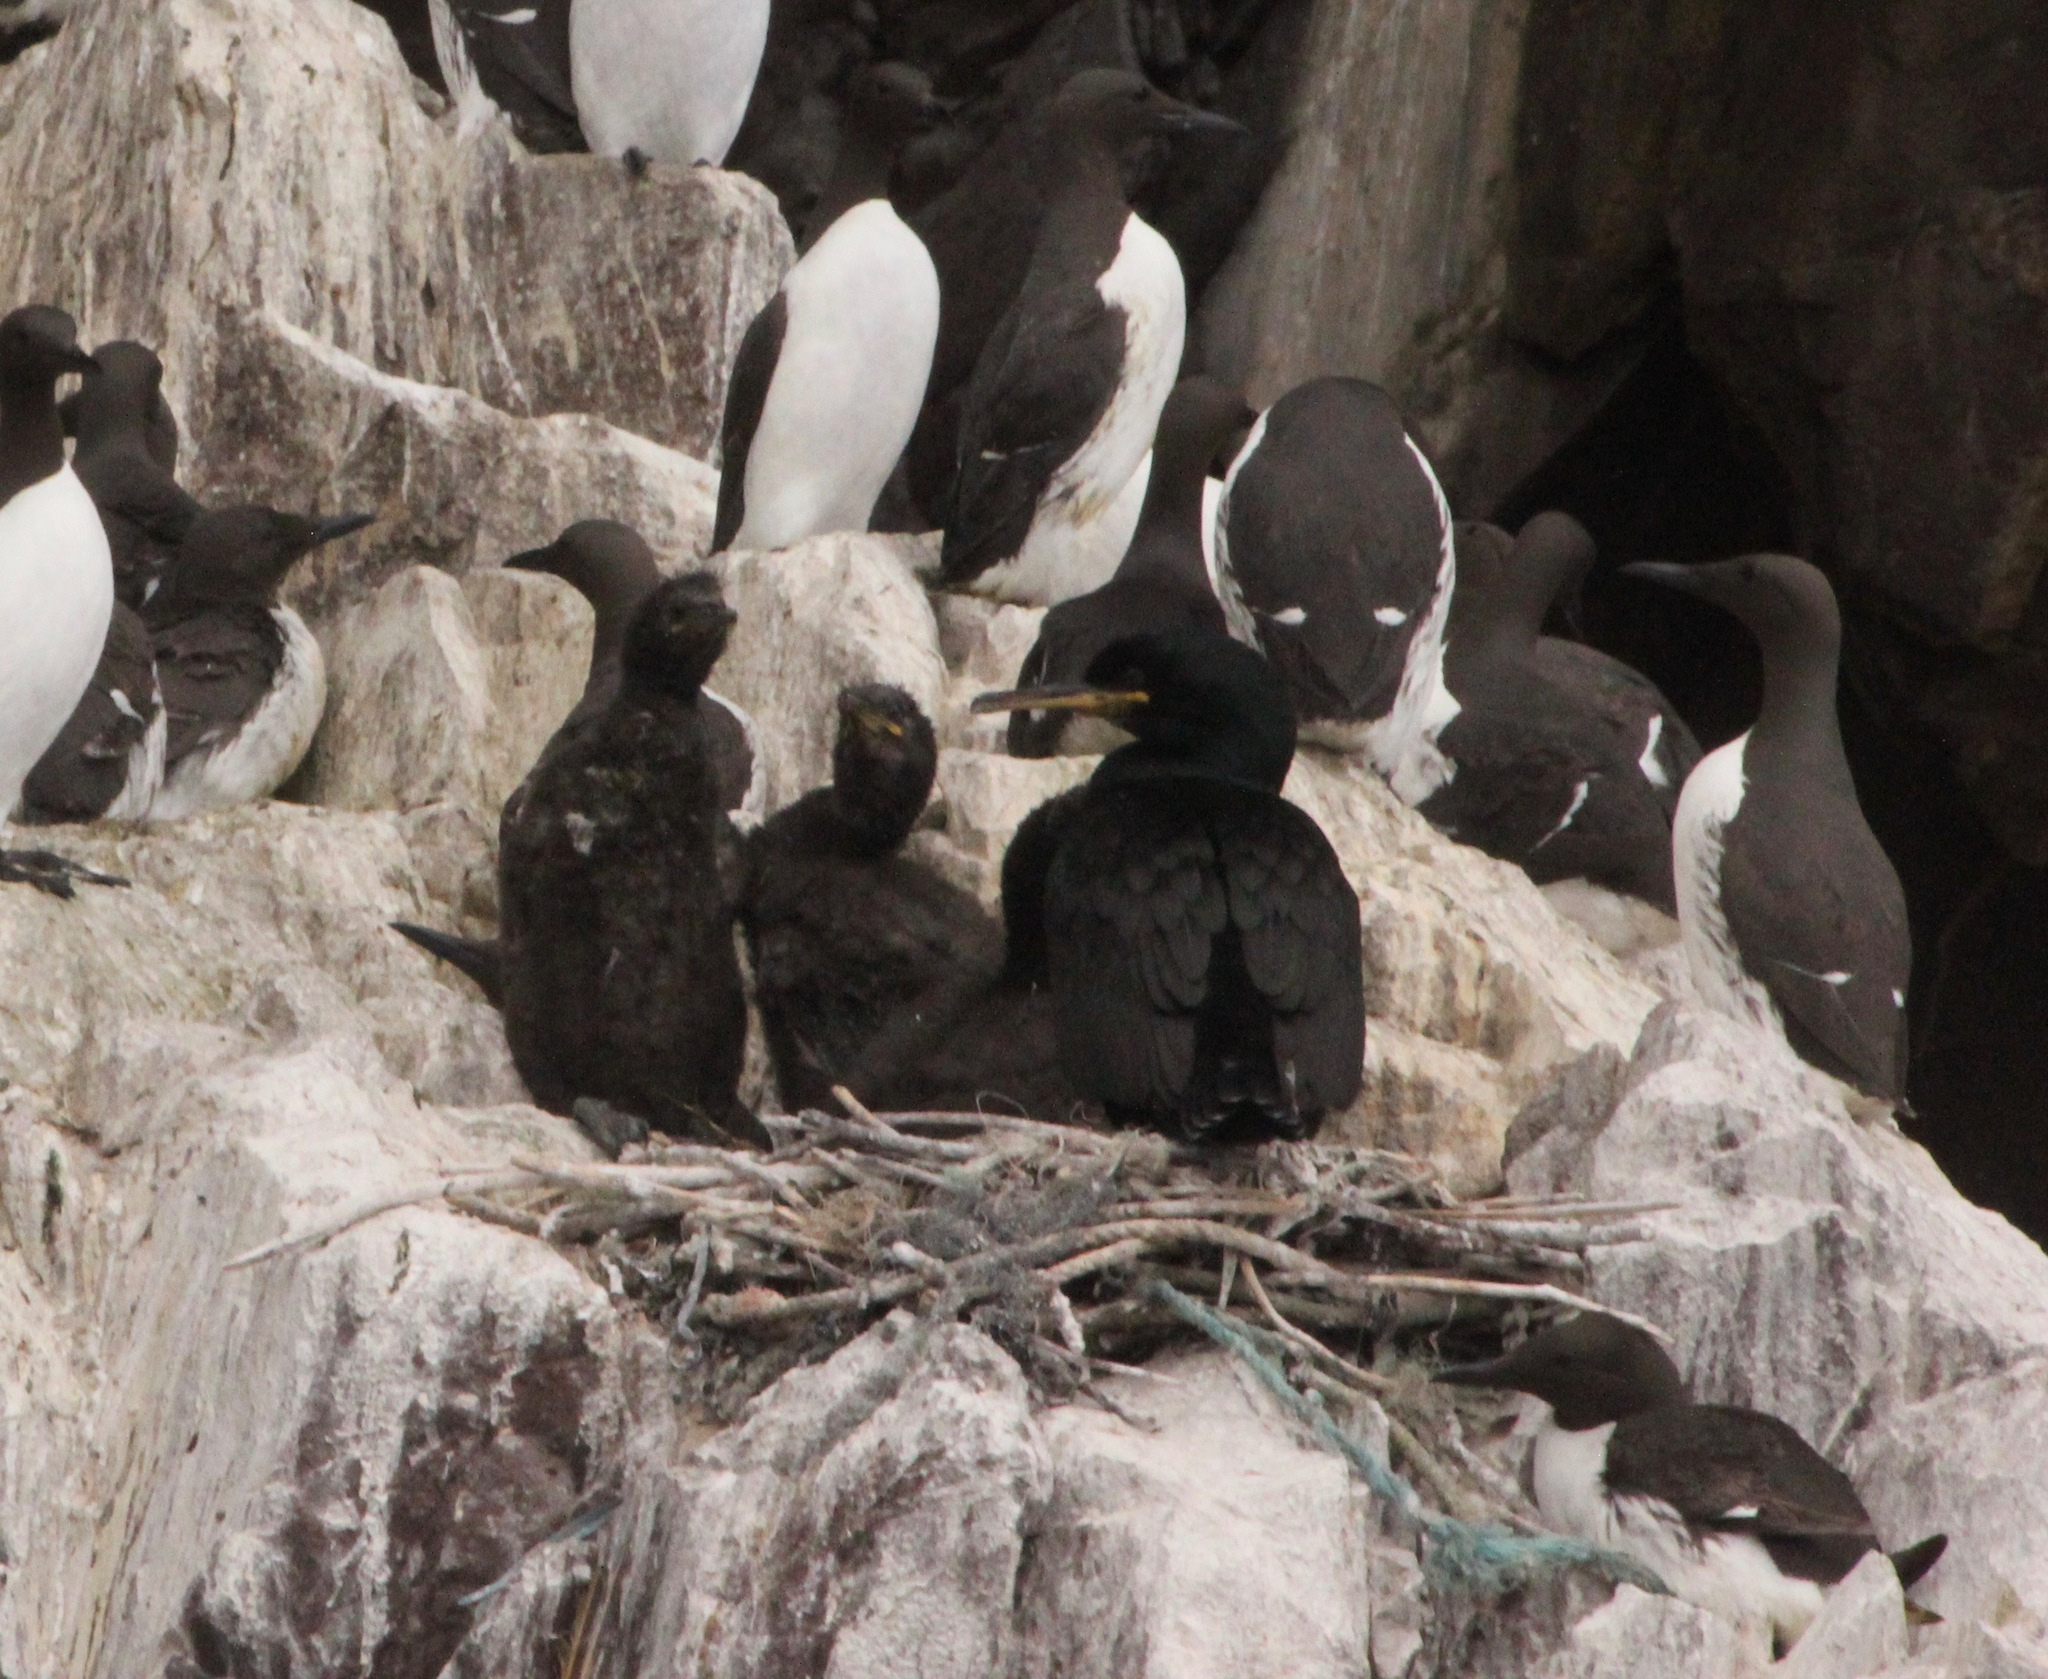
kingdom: Animalia
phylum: Chordata
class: Aves
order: Suliformes
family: Phalacrocoracidae
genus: Phalacrocorax
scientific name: Phalacrocorax aristotelis
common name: European shag
